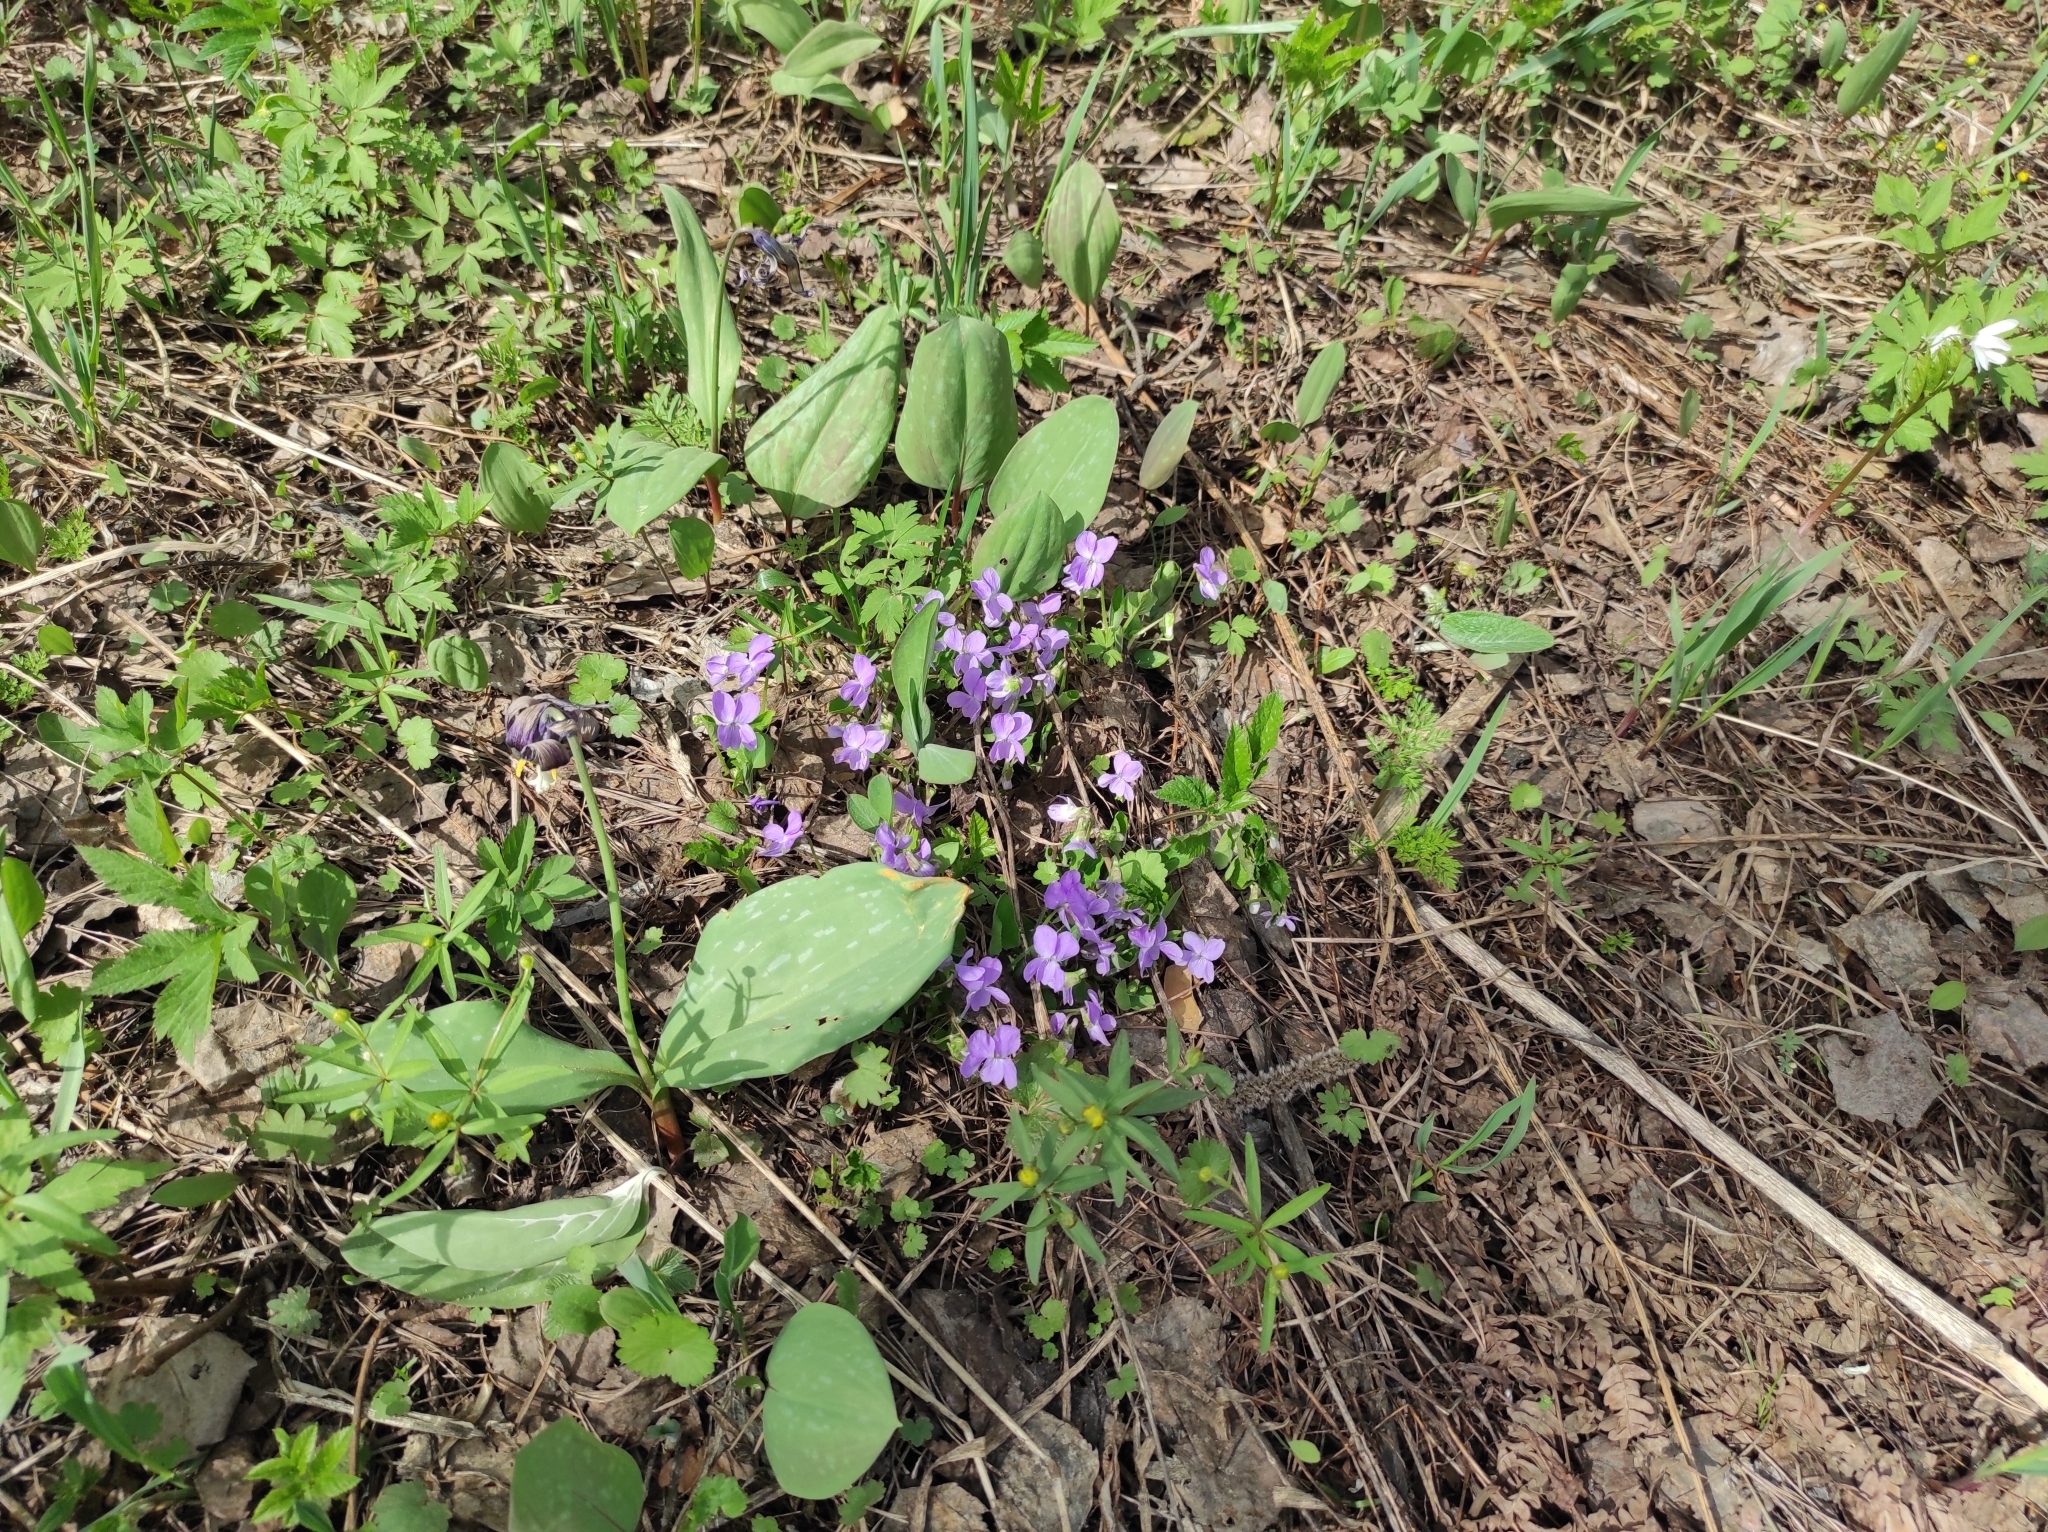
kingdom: Plantae
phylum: Tracheophyta
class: Liliopsida
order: Liliales
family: Liliaceae
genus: Erythronium
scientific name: Erythronium sibiricum
